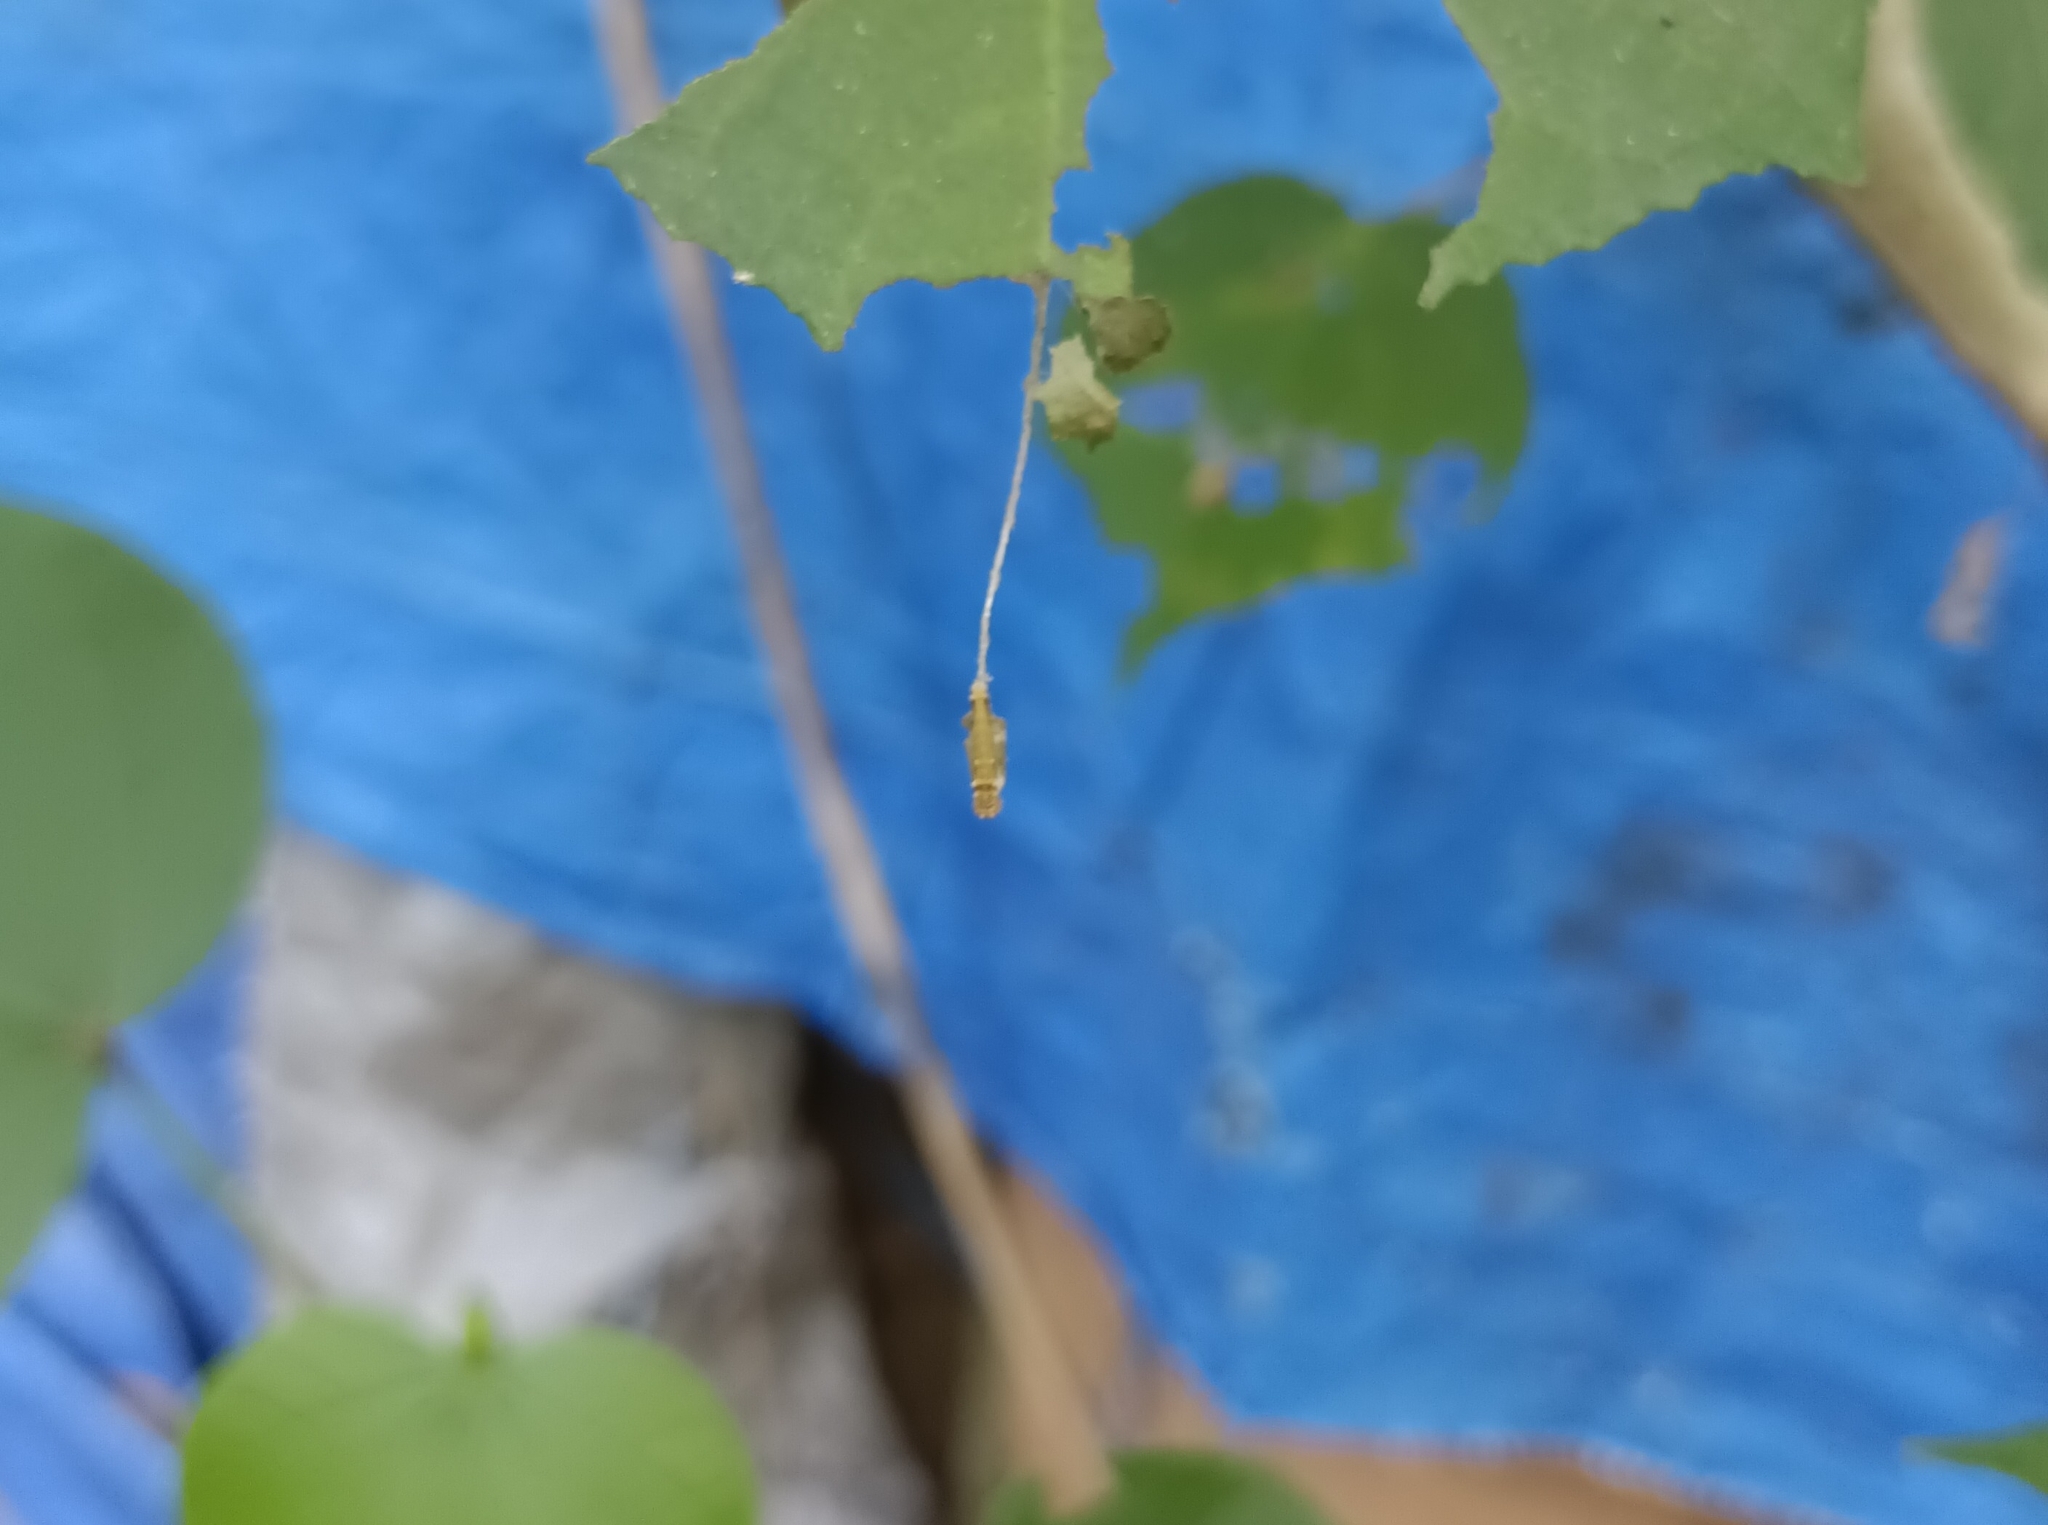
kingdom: Animalia
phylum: Arthropoda
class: Insecta
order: Lepidoptera
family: Nymphalidae
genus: Neptis
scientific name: Neptis jumbah
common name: Chestnut-streaked sailer
